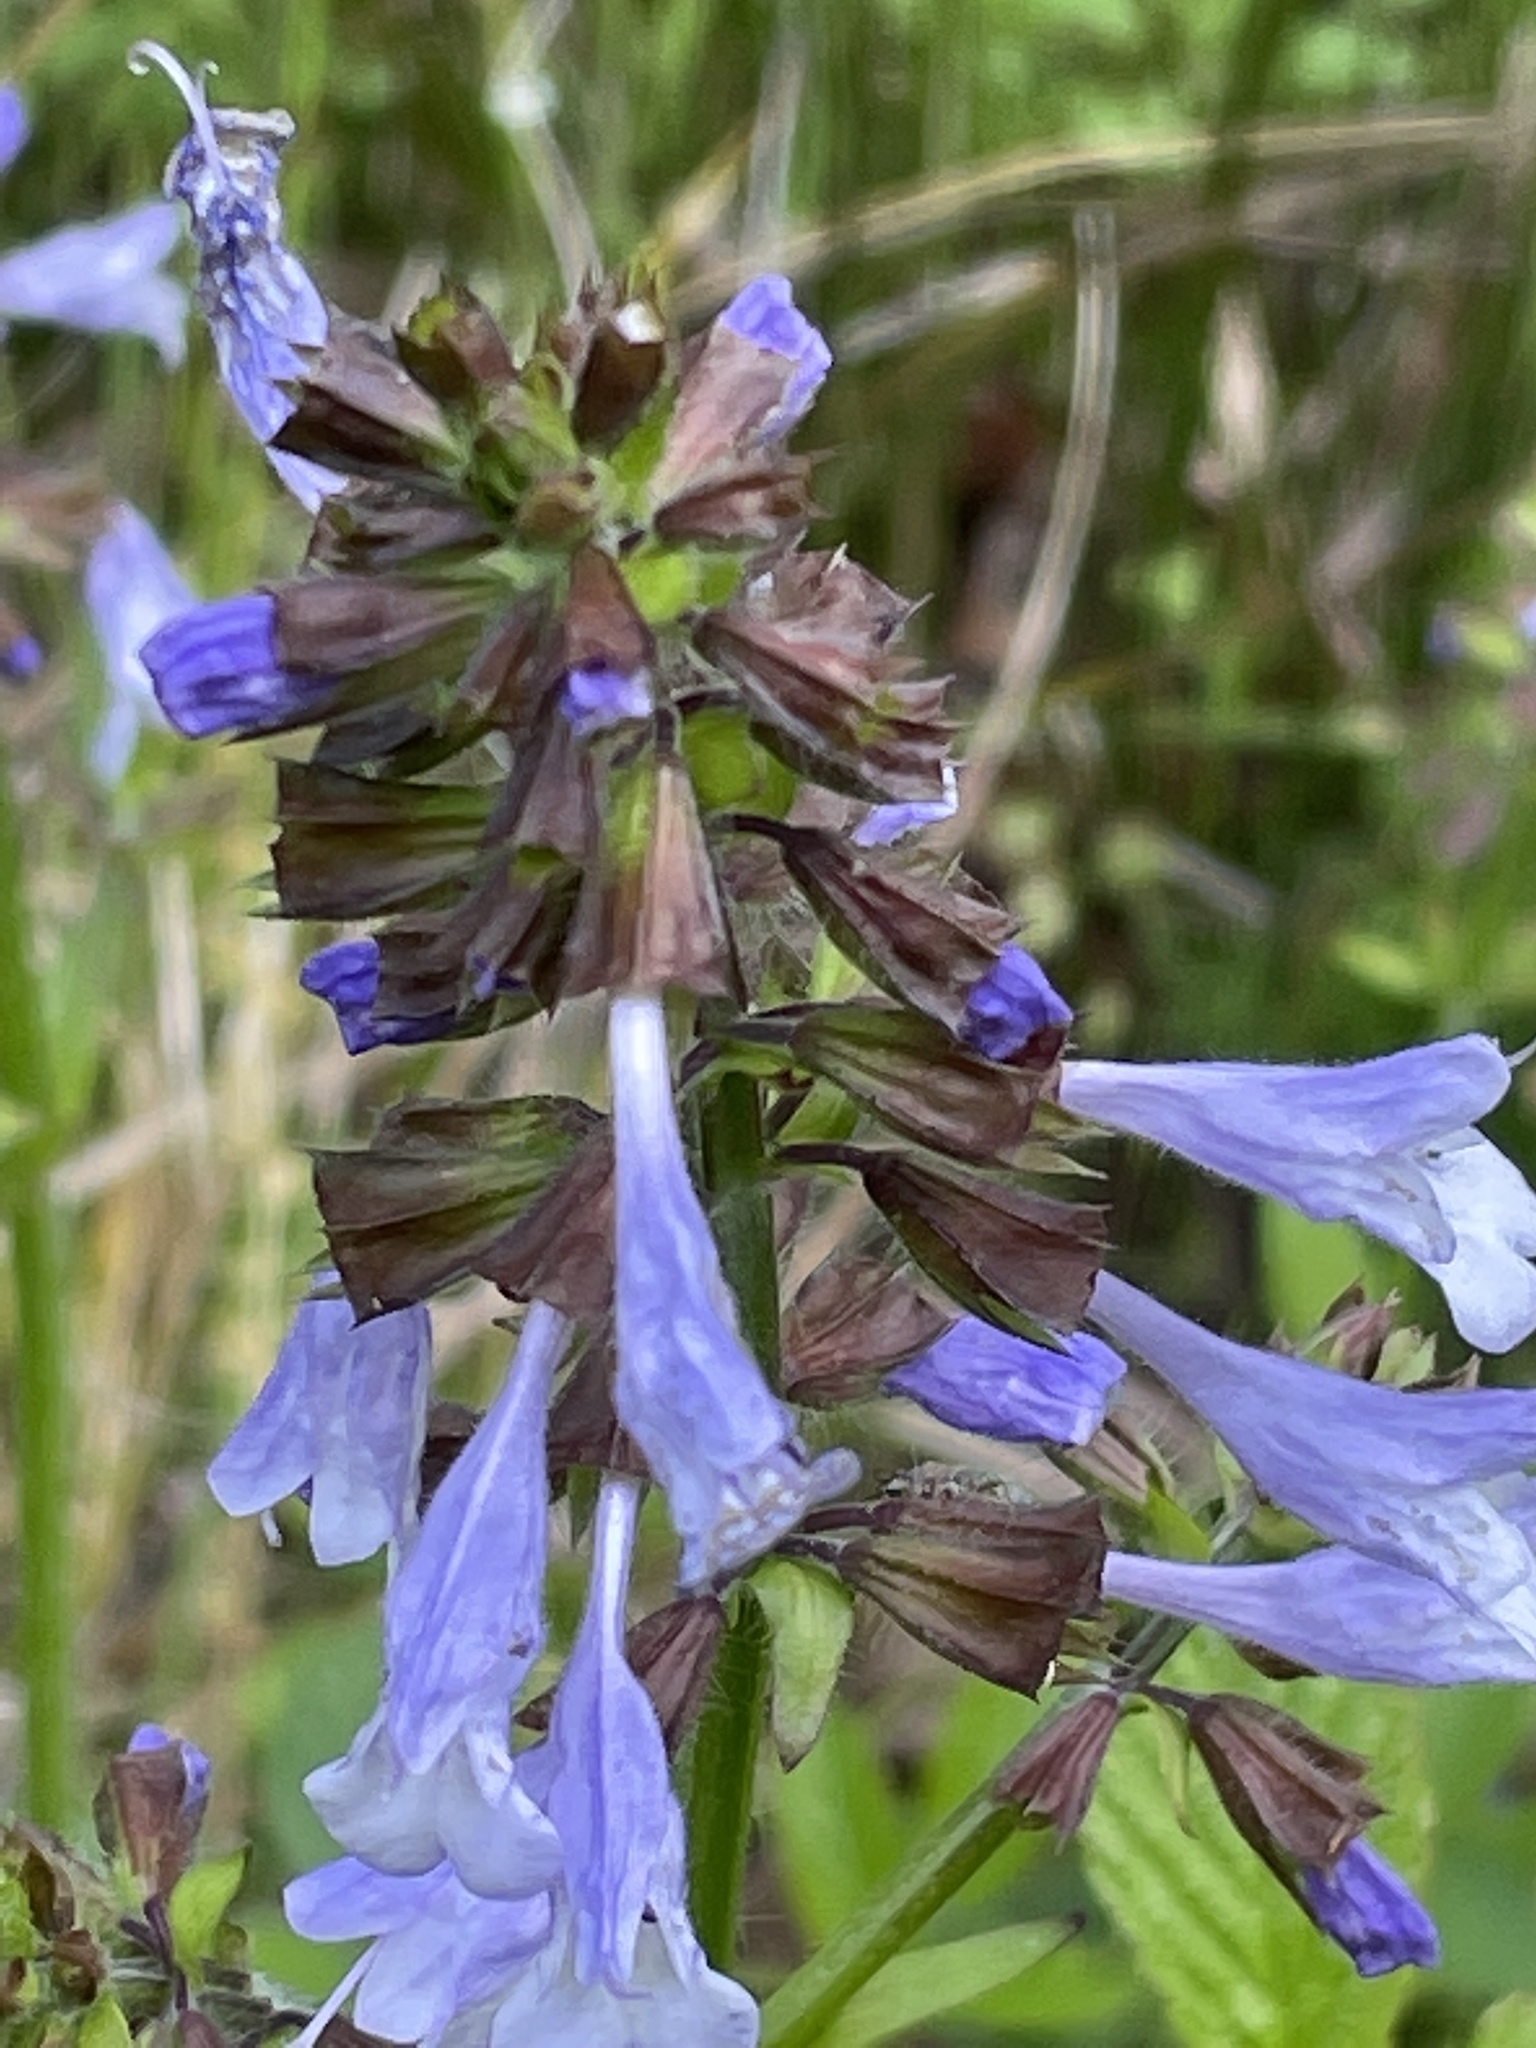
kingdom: Plantae
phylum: Tracheophyta
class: Magnoliopsida
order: Lamiales
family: Lamiaceae
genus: Salvia
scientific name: Salvia lyrata
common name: Cancerweed
